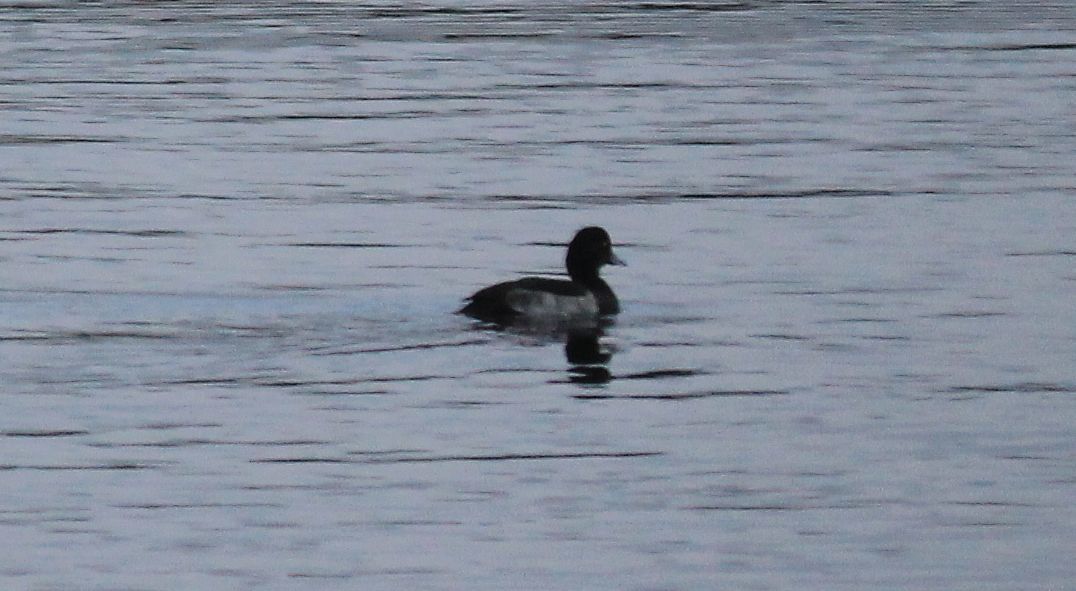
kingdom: Animalia
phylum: Chordata
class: Aves
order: Anseriformes
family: Anatidae
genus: Aythya
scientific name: Aythya fuligula
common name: Tufted duck
